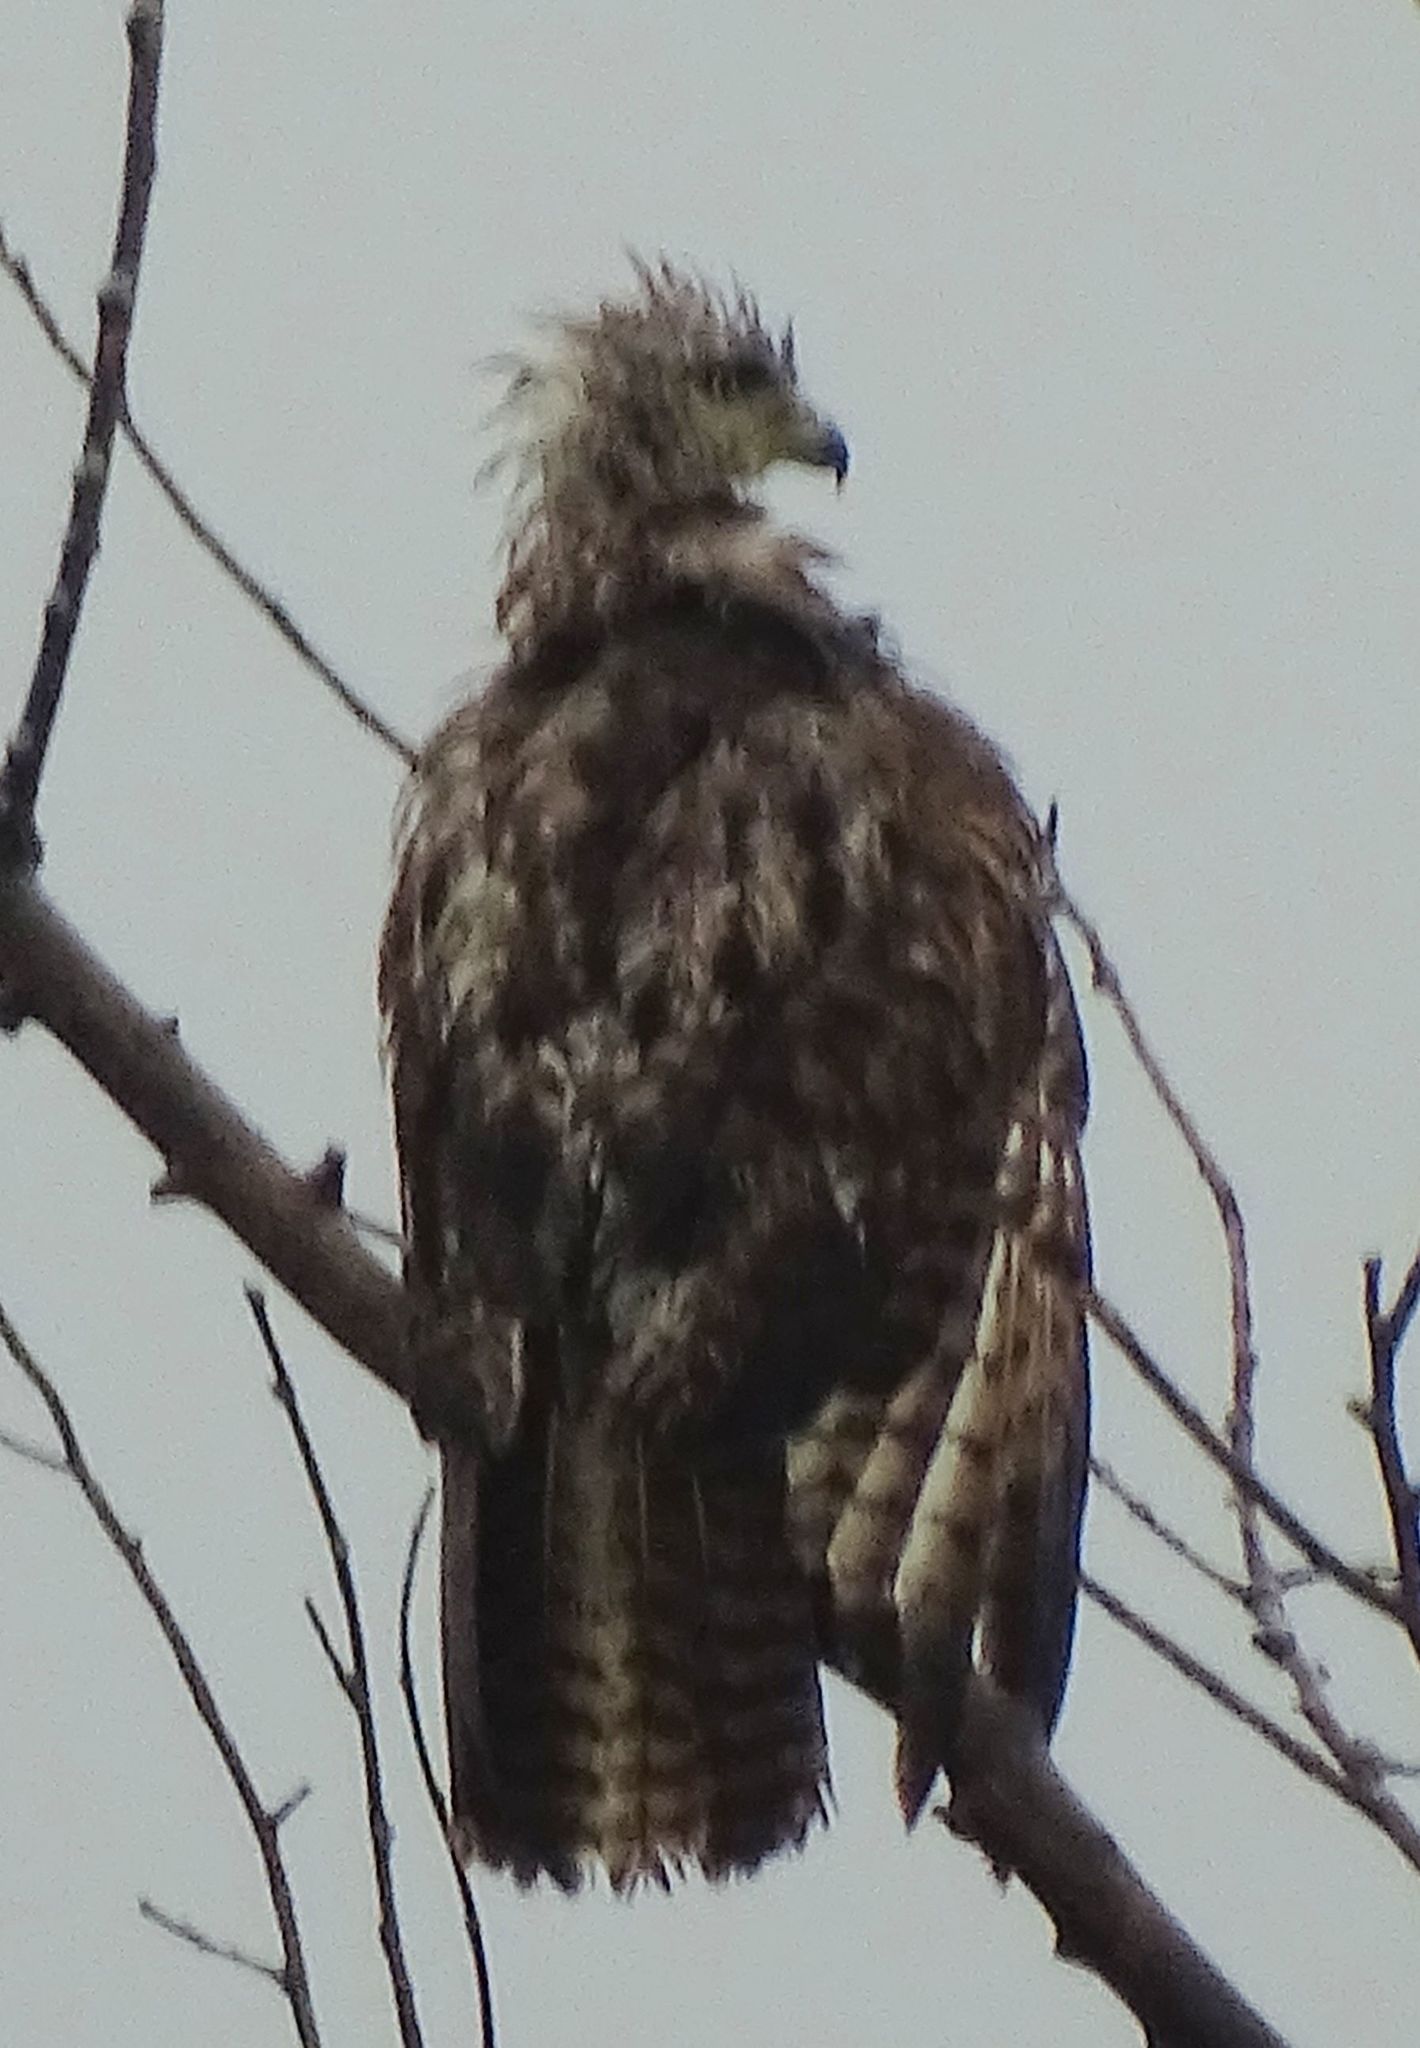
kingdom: Animalia
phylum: Chordata
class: Aves
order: Accipitriformes
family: Accipitridae
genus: Buteo
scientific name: Buteo jamaicensis
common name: Red-tailed hawk
